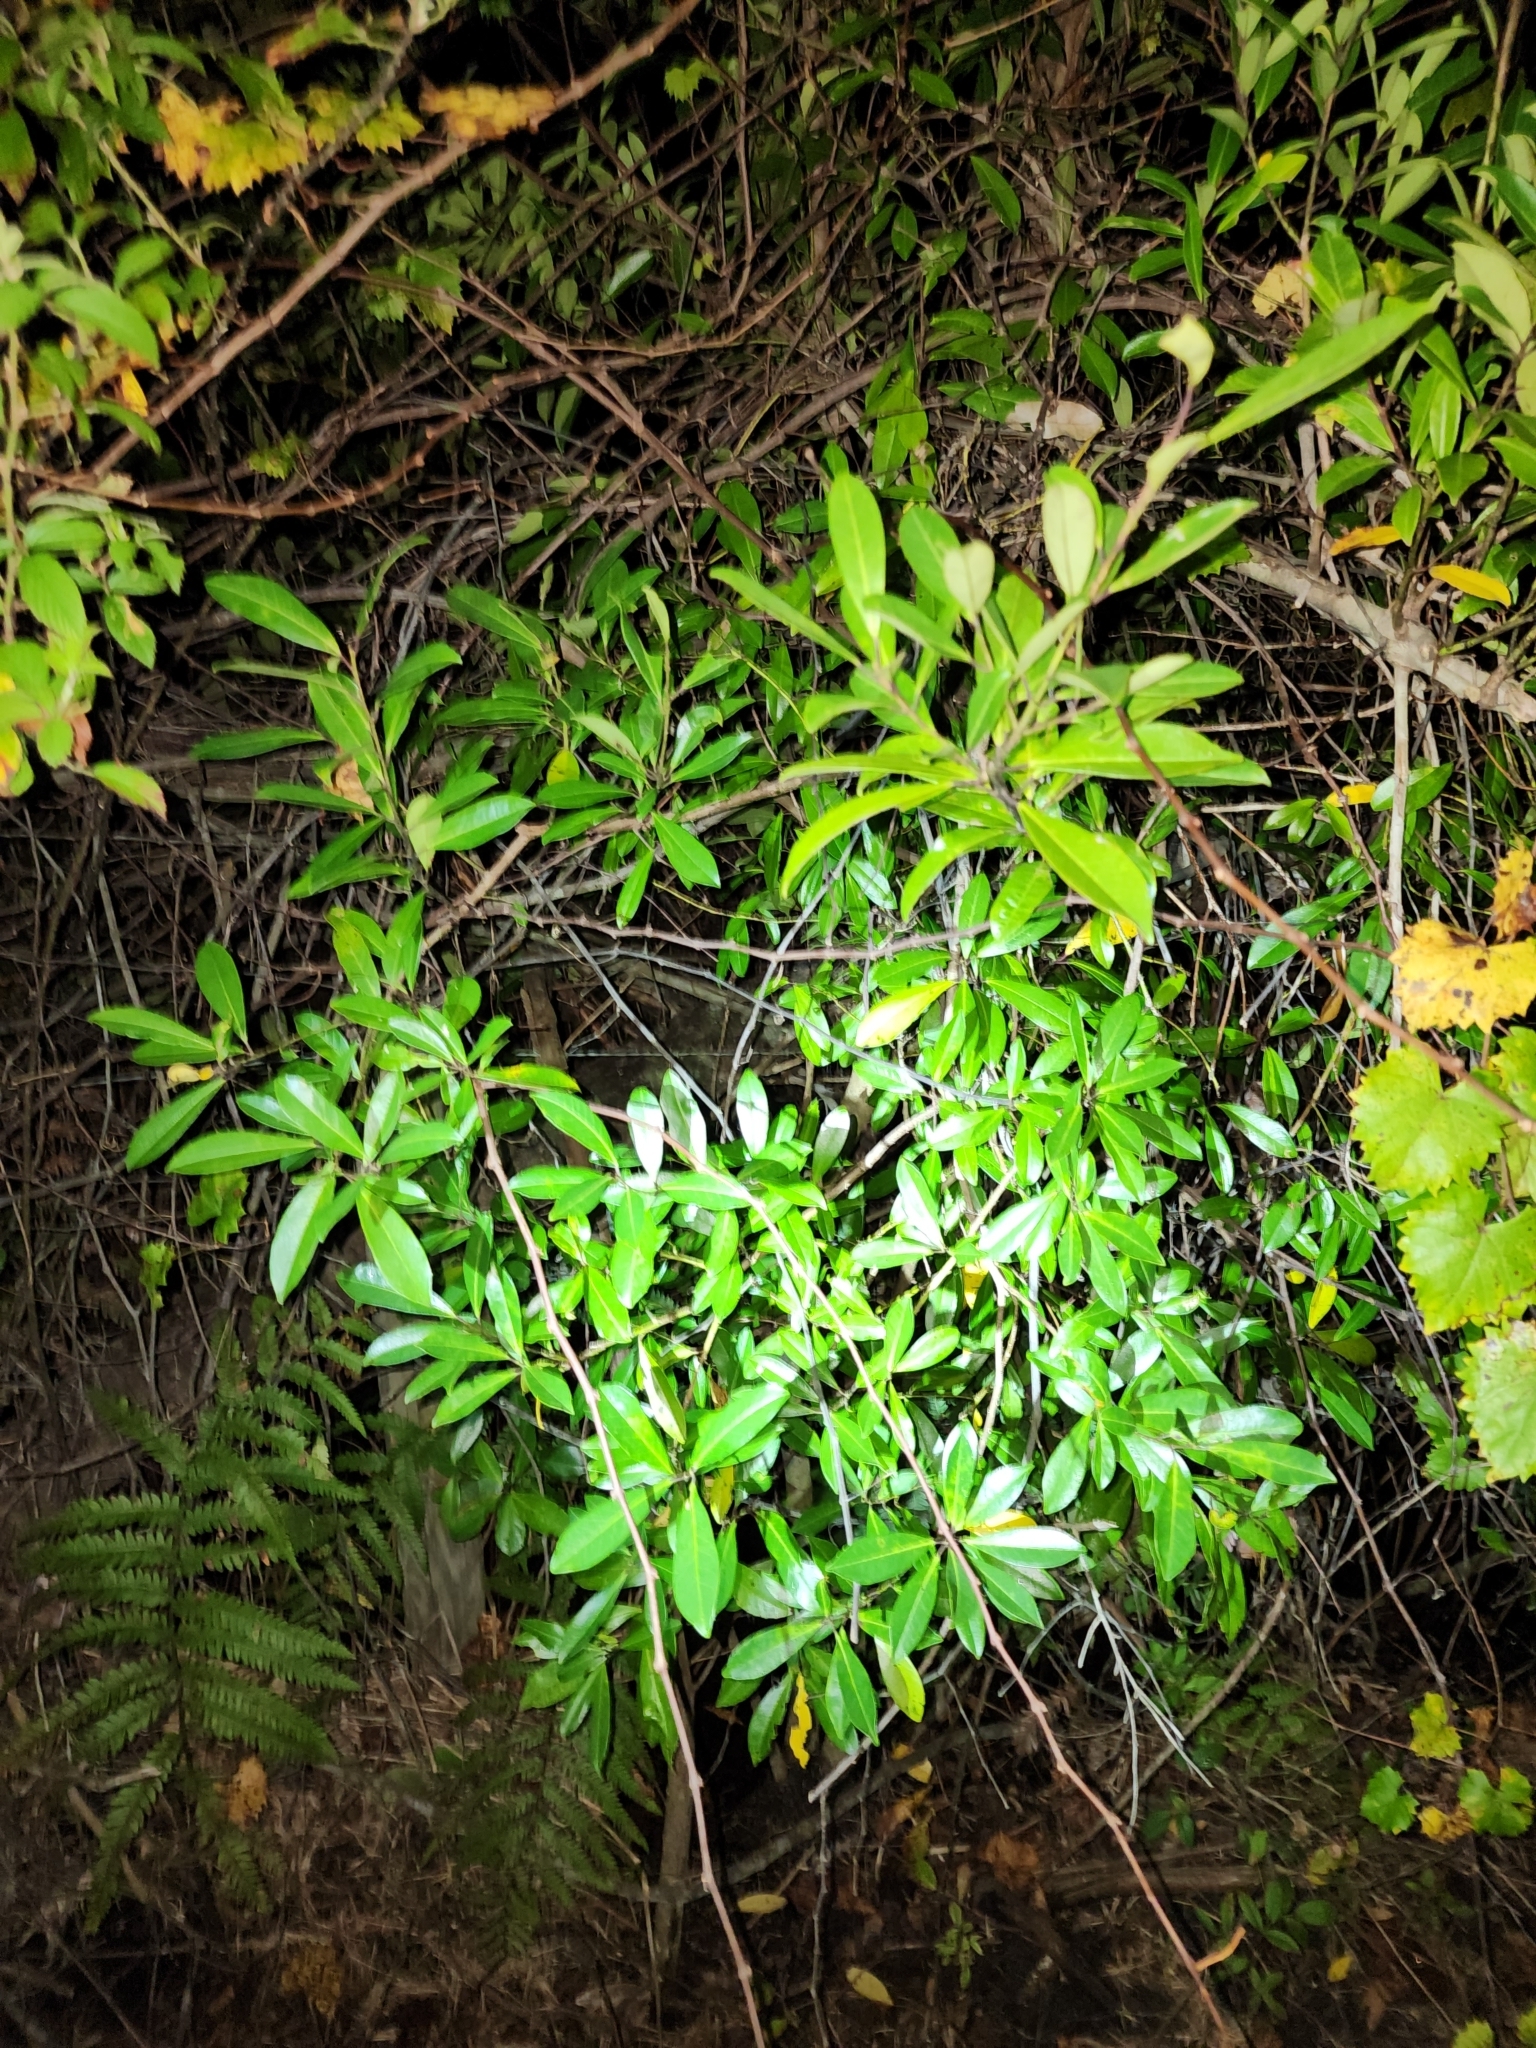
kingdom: Plantae
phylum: Tracheophyta
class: Magnoliopsida
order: Aquifoliales
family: Aquifoliaceae
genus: Ilex
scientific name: Ilex cassine
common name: Dahoon
